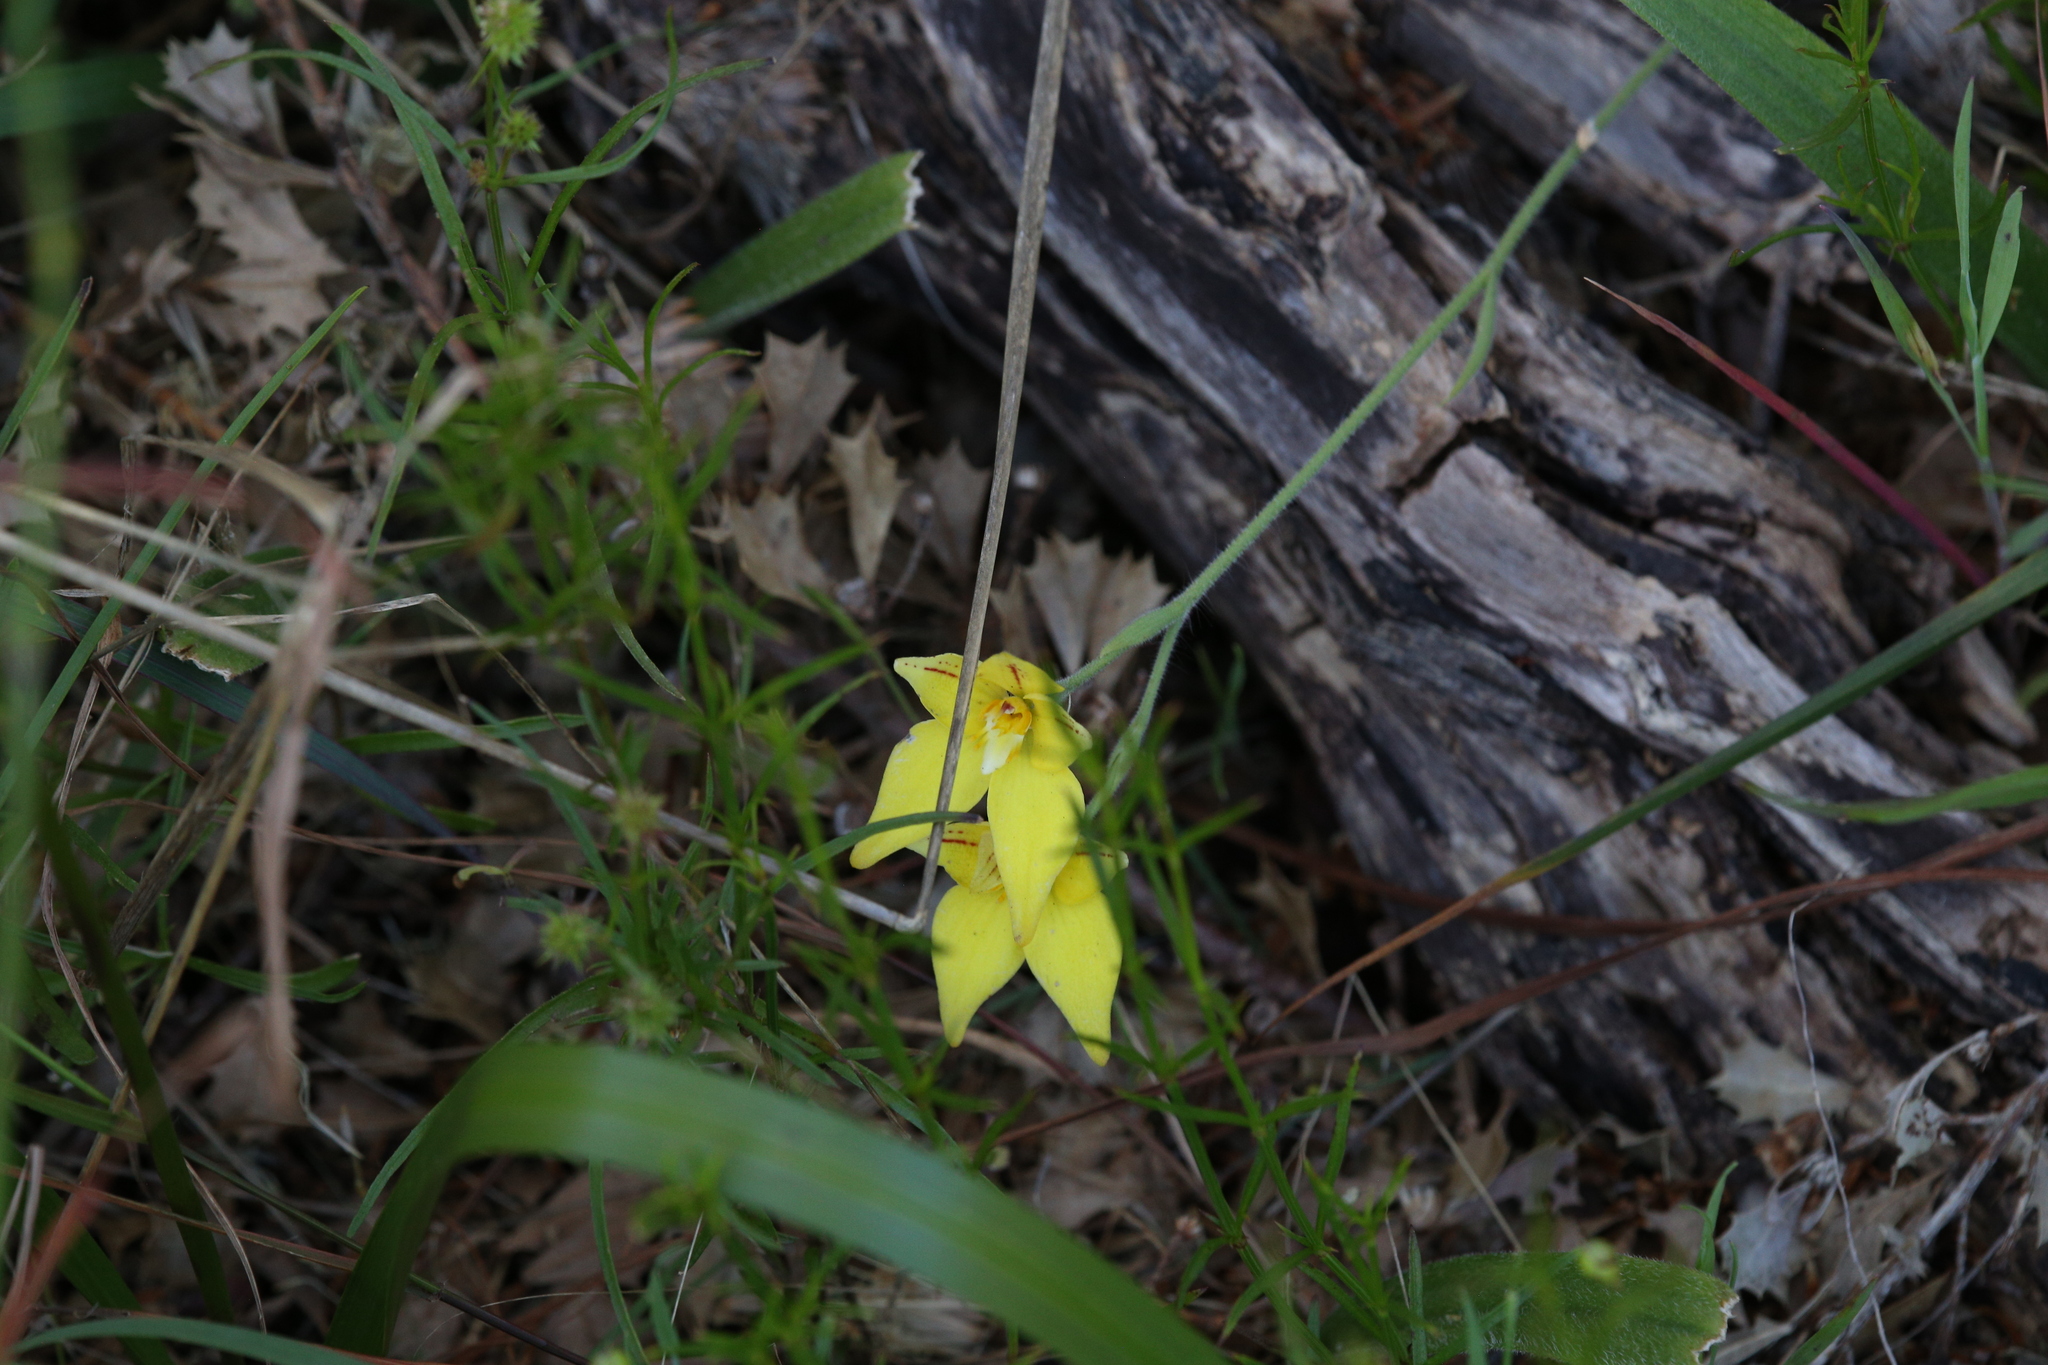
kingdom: Plantae
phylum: Tracheophyta
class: Liliopsida
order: Asparagales
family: Orchidaceae
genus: Caladenia
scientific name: Caladenia flava
